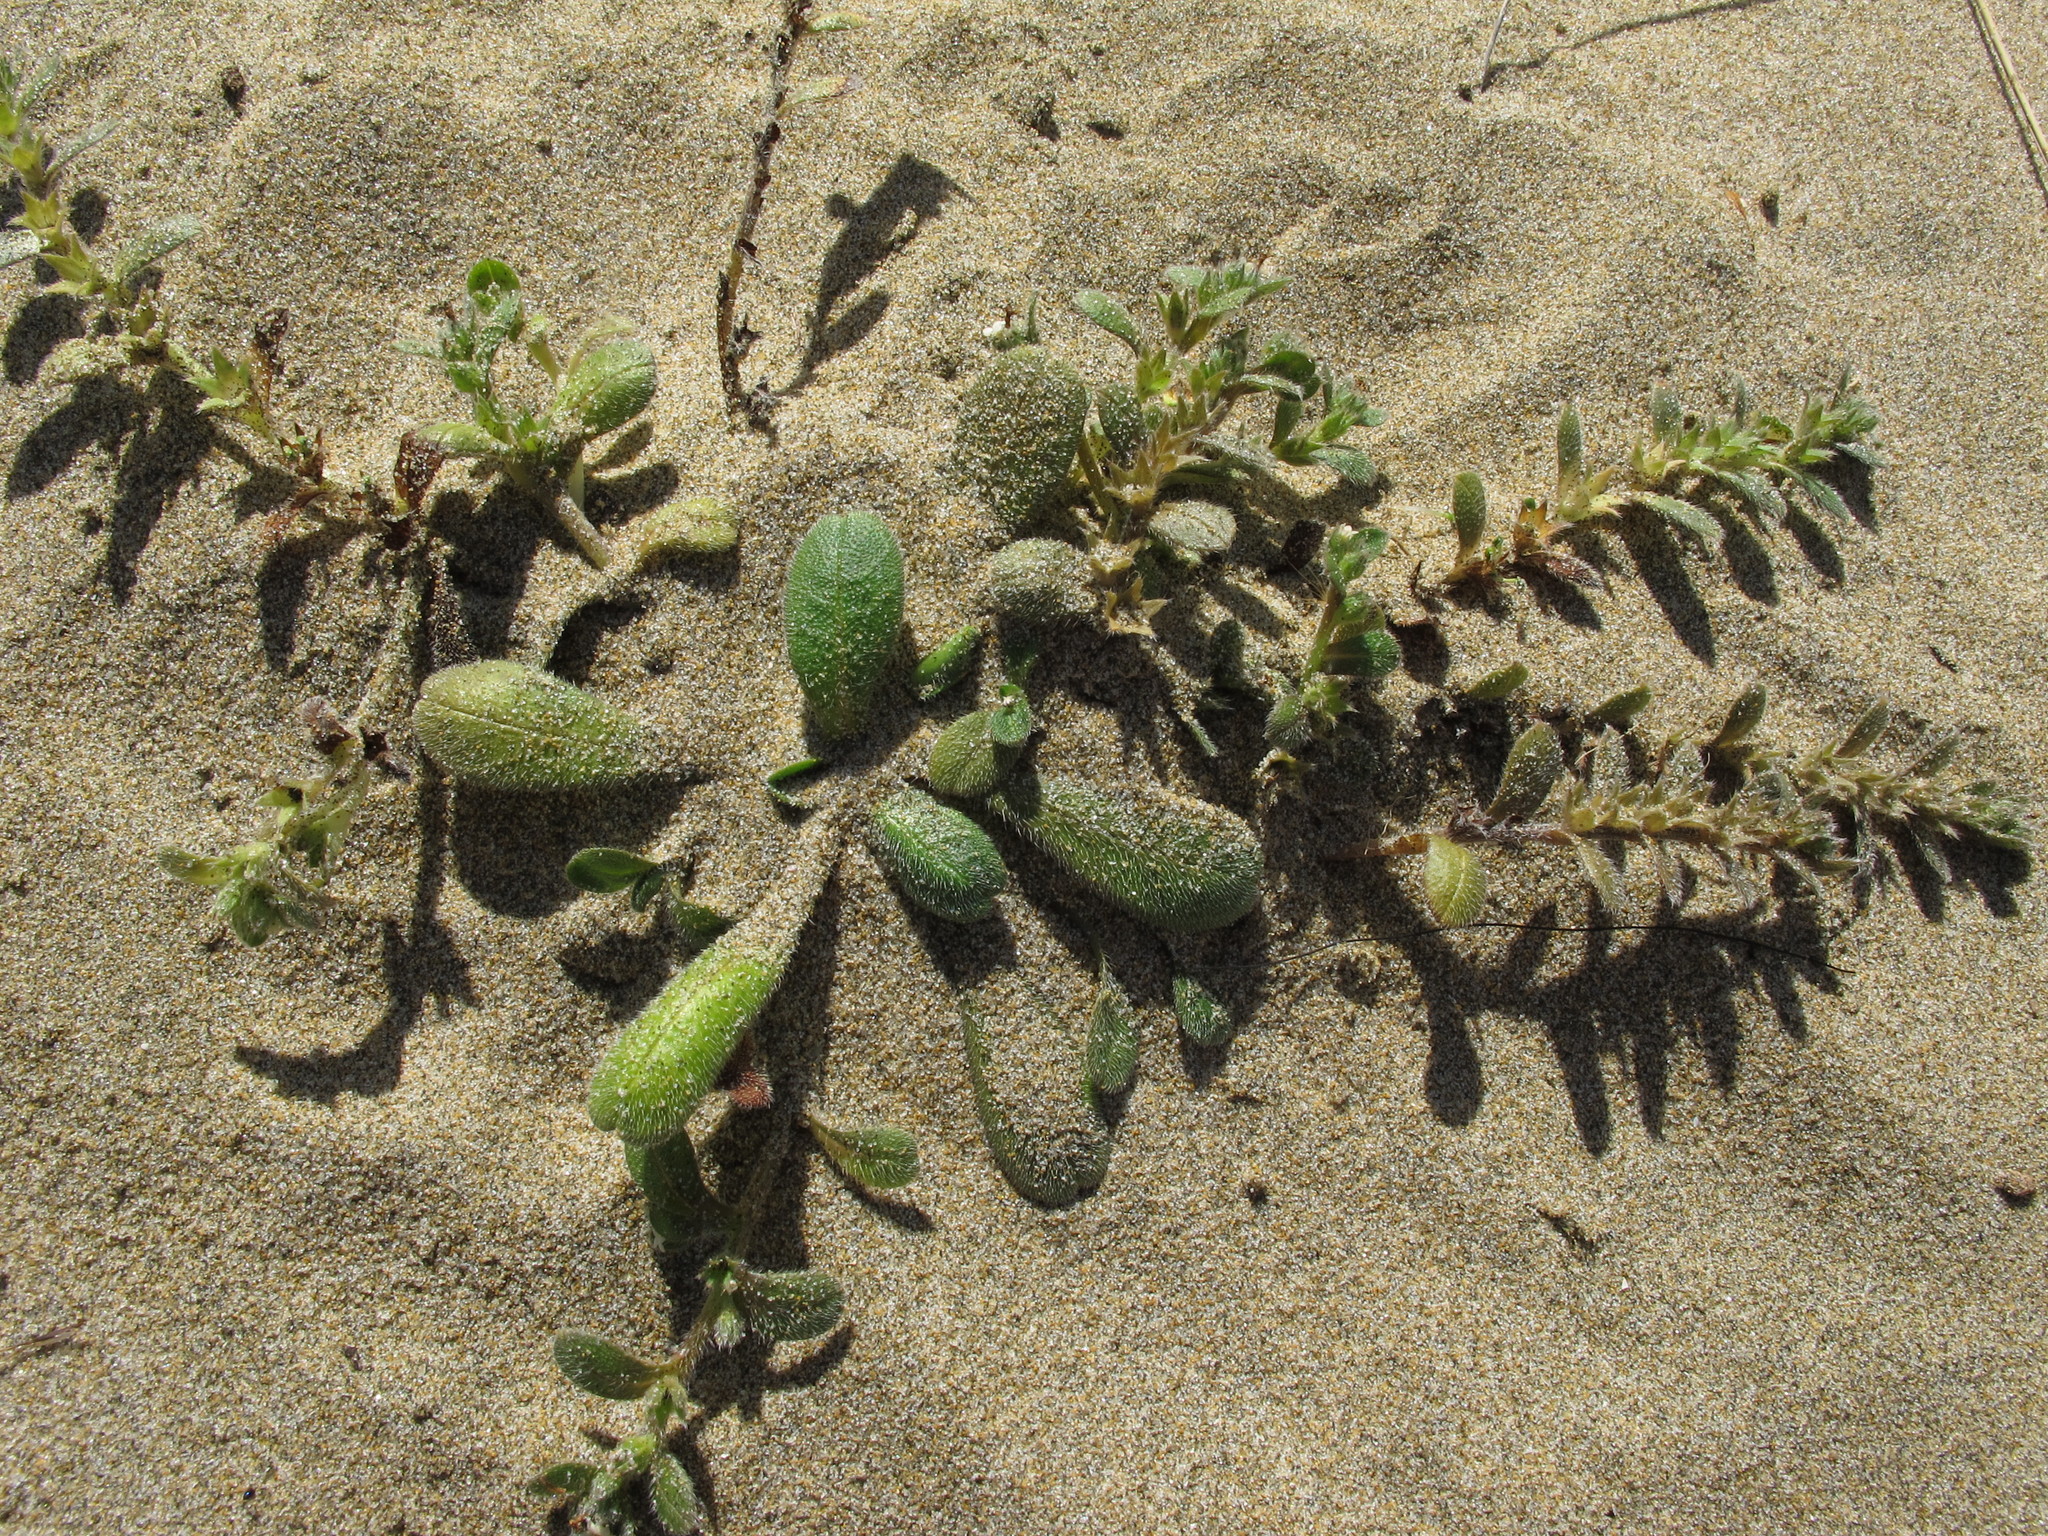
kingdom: Plantae
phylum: Tracheophyta
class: Magnoliopsida
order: Boraginales
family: Boraginaceae
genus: Myosotis
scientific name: Myosotis antarctica
